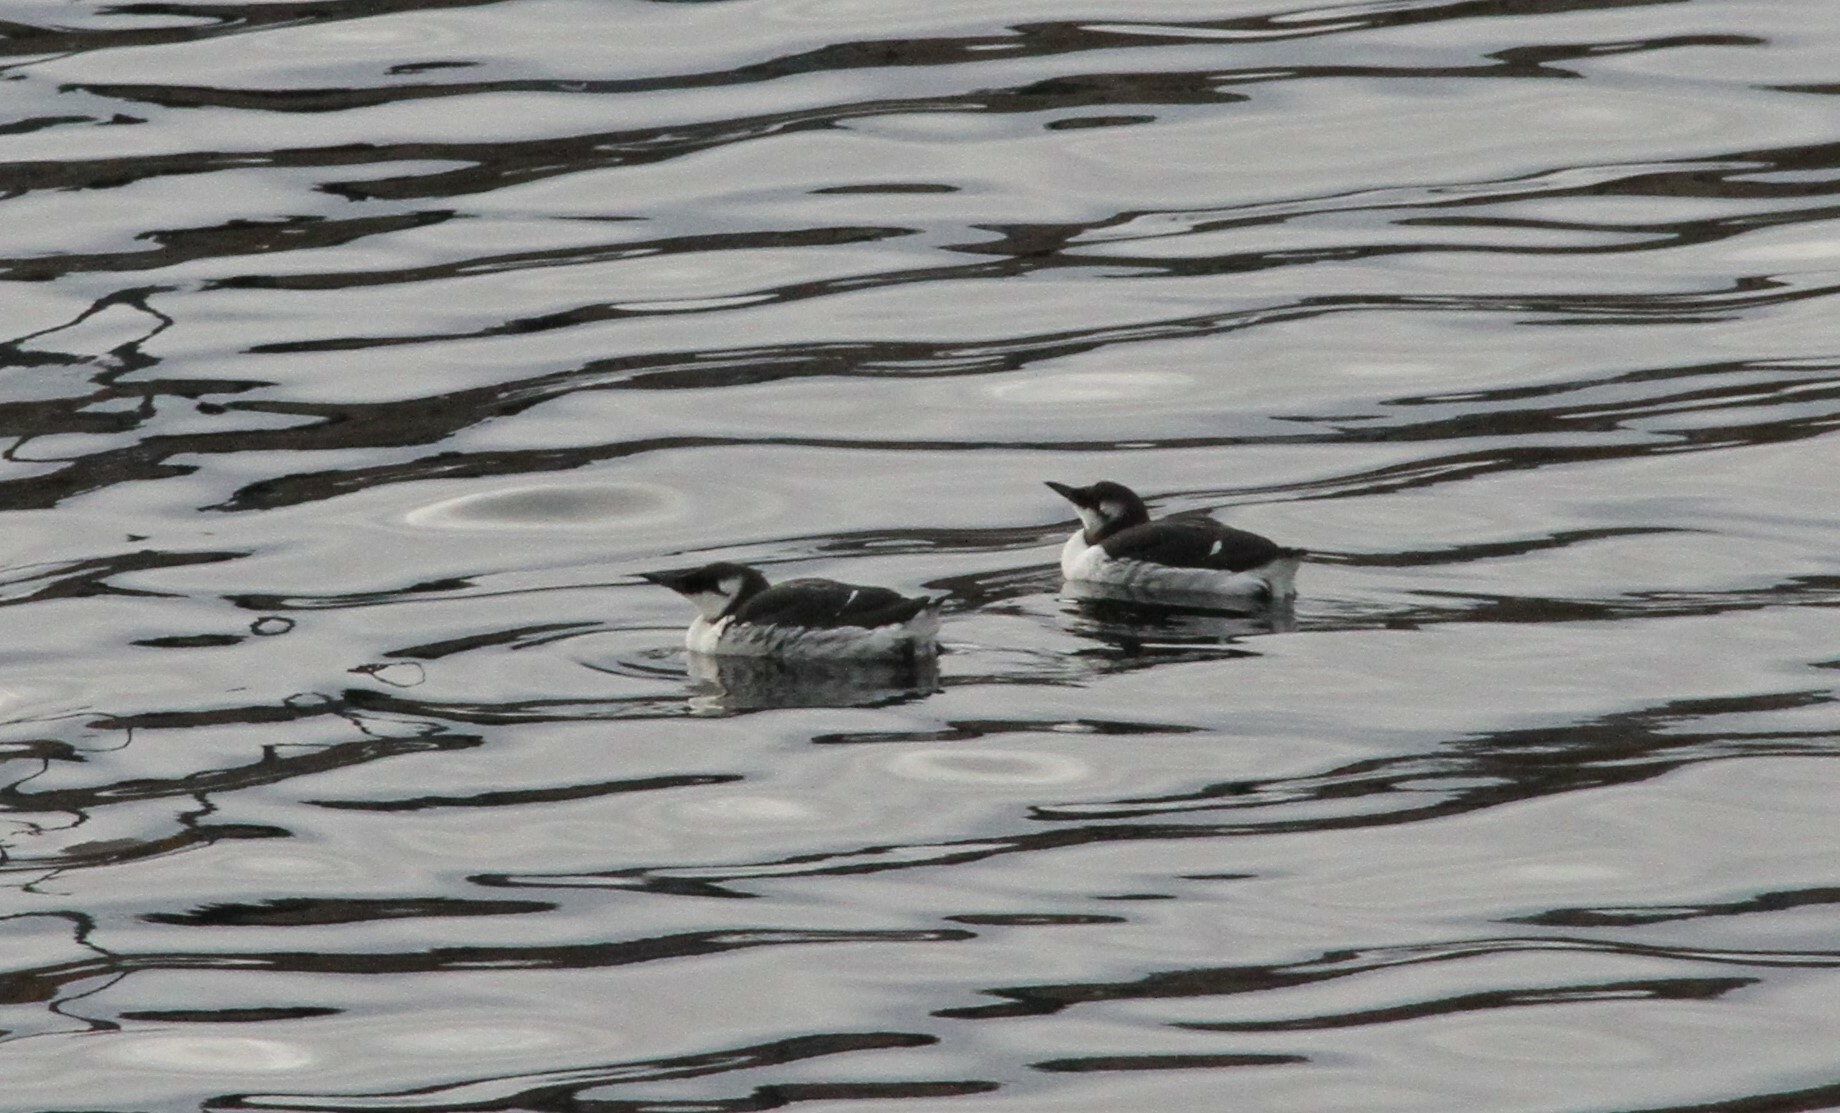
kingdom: Animalia
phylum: Chordata
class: Aves
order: Charadriiformes
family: Alcidae
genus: Uria
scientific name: Uria aalge
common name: Common murre
